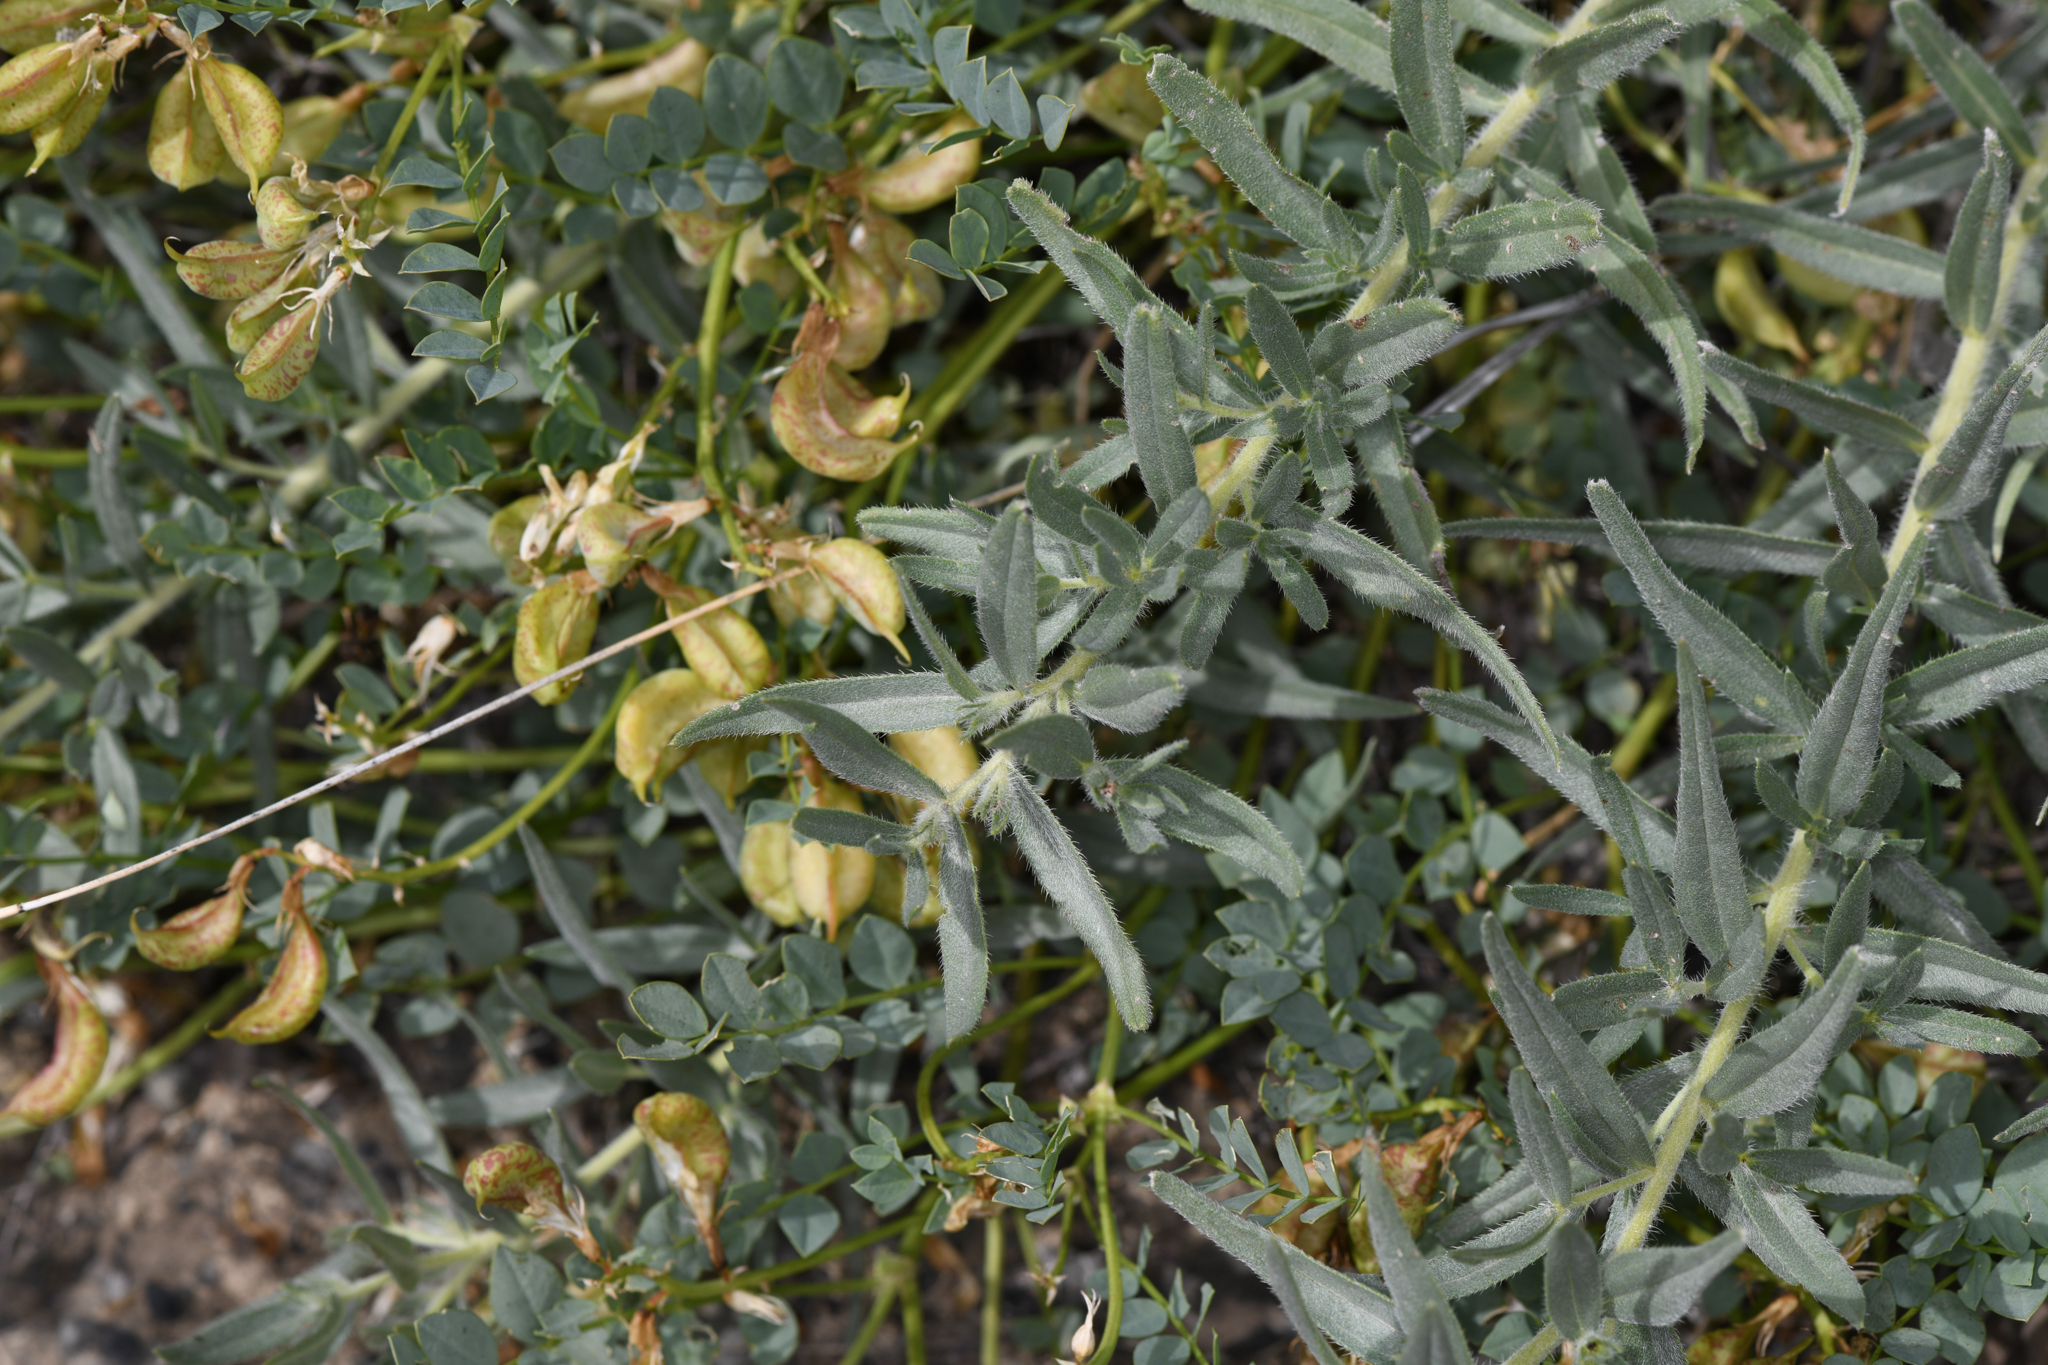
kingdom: Plantae
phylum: Tracheophyta
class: Magnoliopsida
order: Fabales
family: Fabaceae
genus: Astragalus
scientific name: Astragalus beckwithii
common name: Beckwith's milk-vetch
